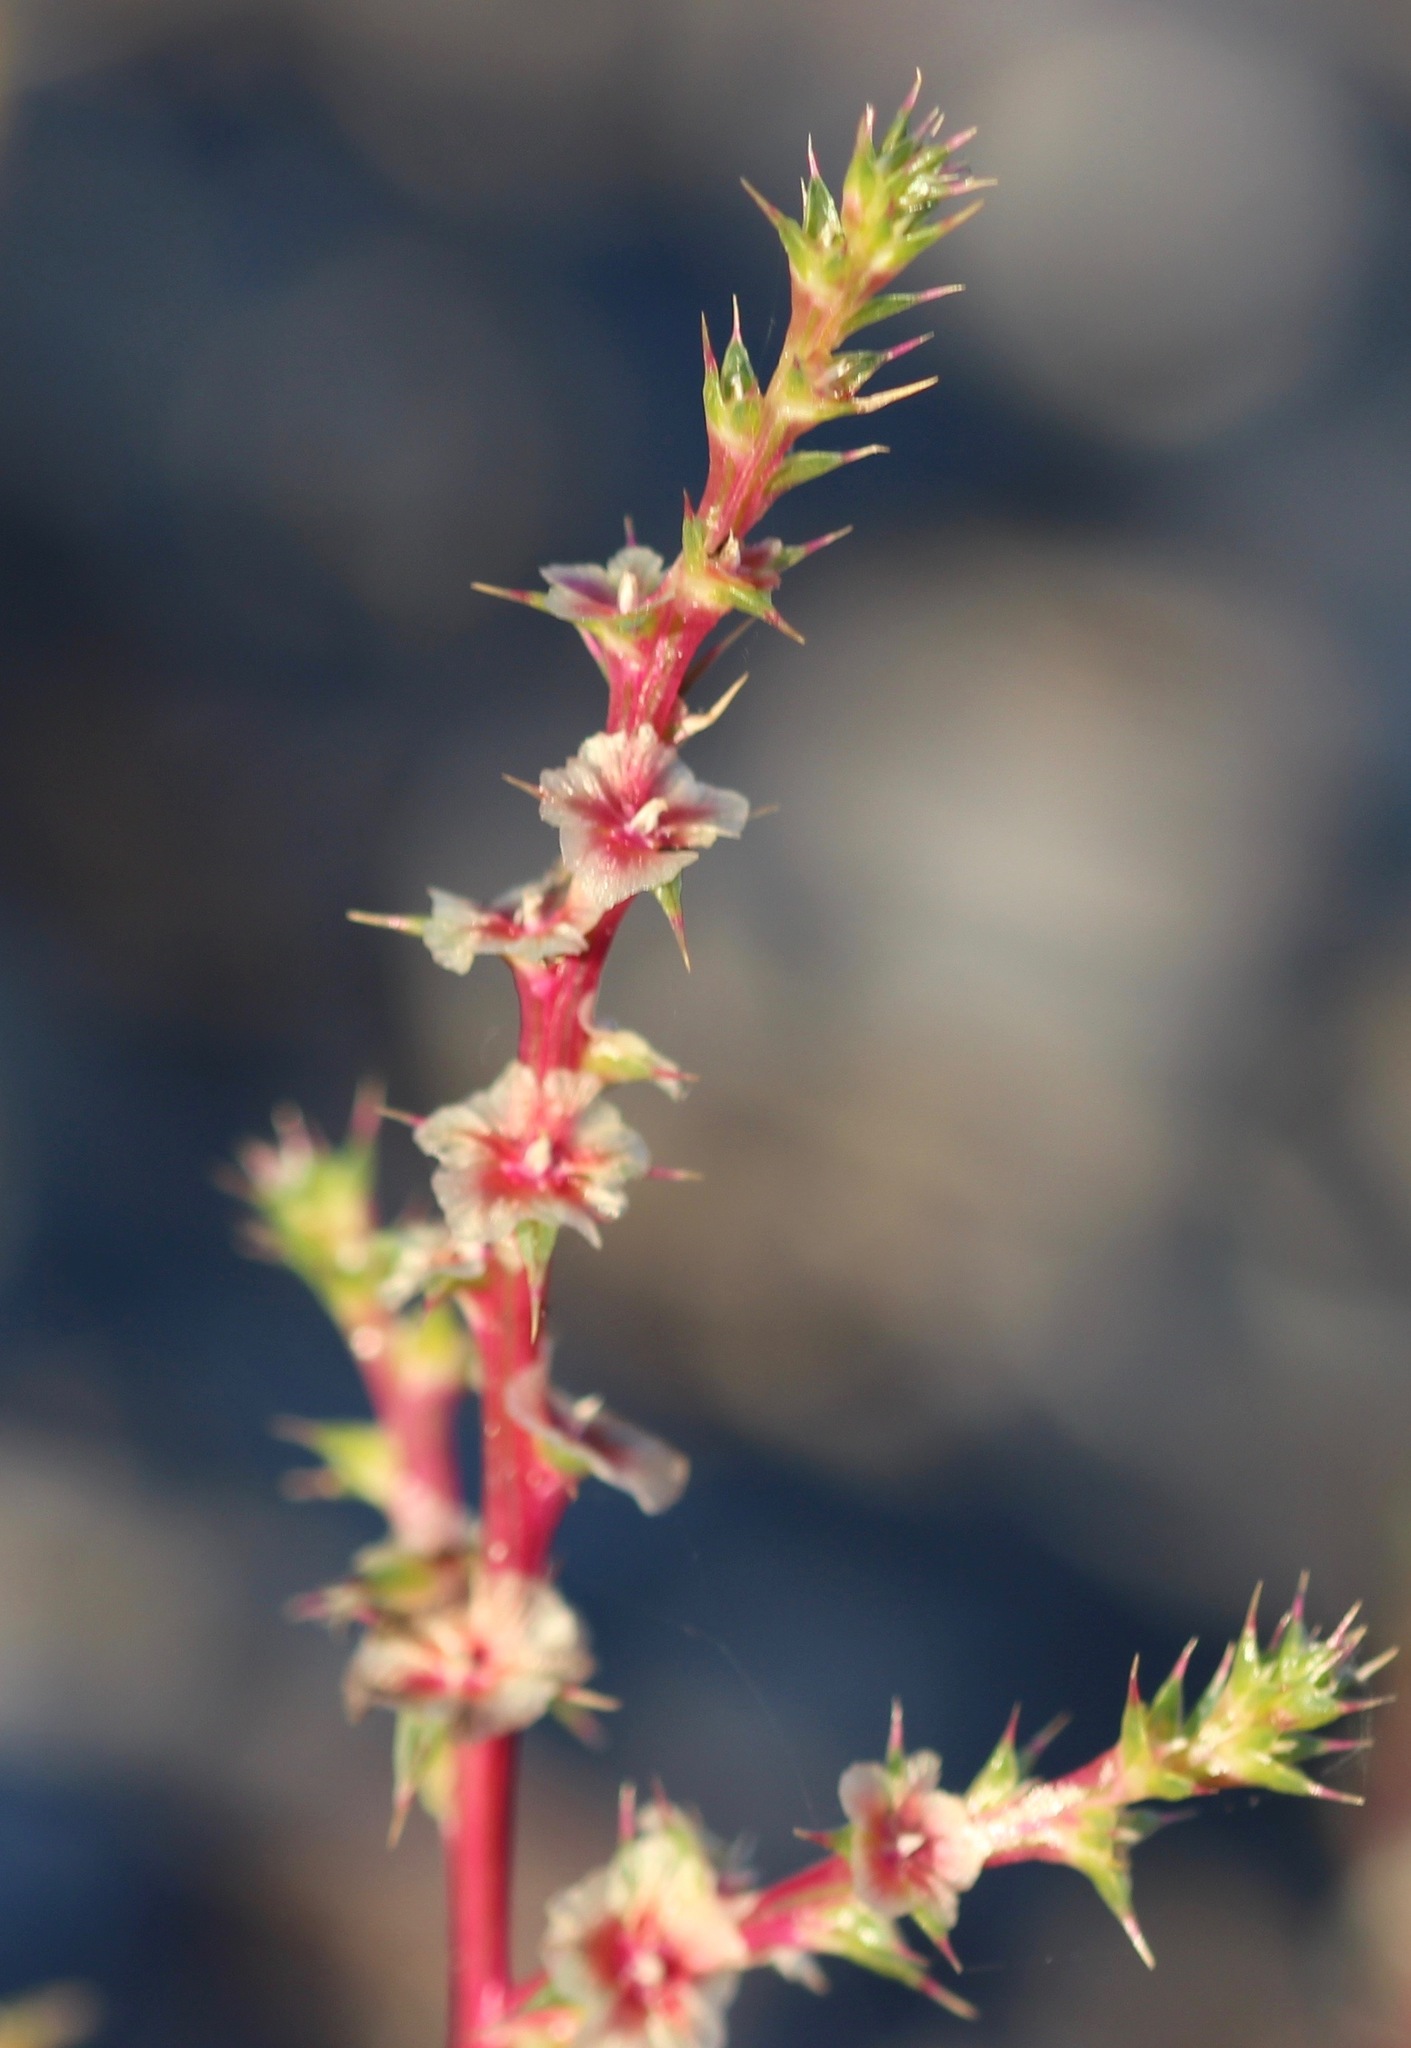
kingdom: Plantae
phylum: Tracheophyta
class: Magnoliopsida
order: Caryophyllales
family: Amaranthaceae
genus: Salsola
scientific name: Salsola tragus
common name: Prickly russian thistle
